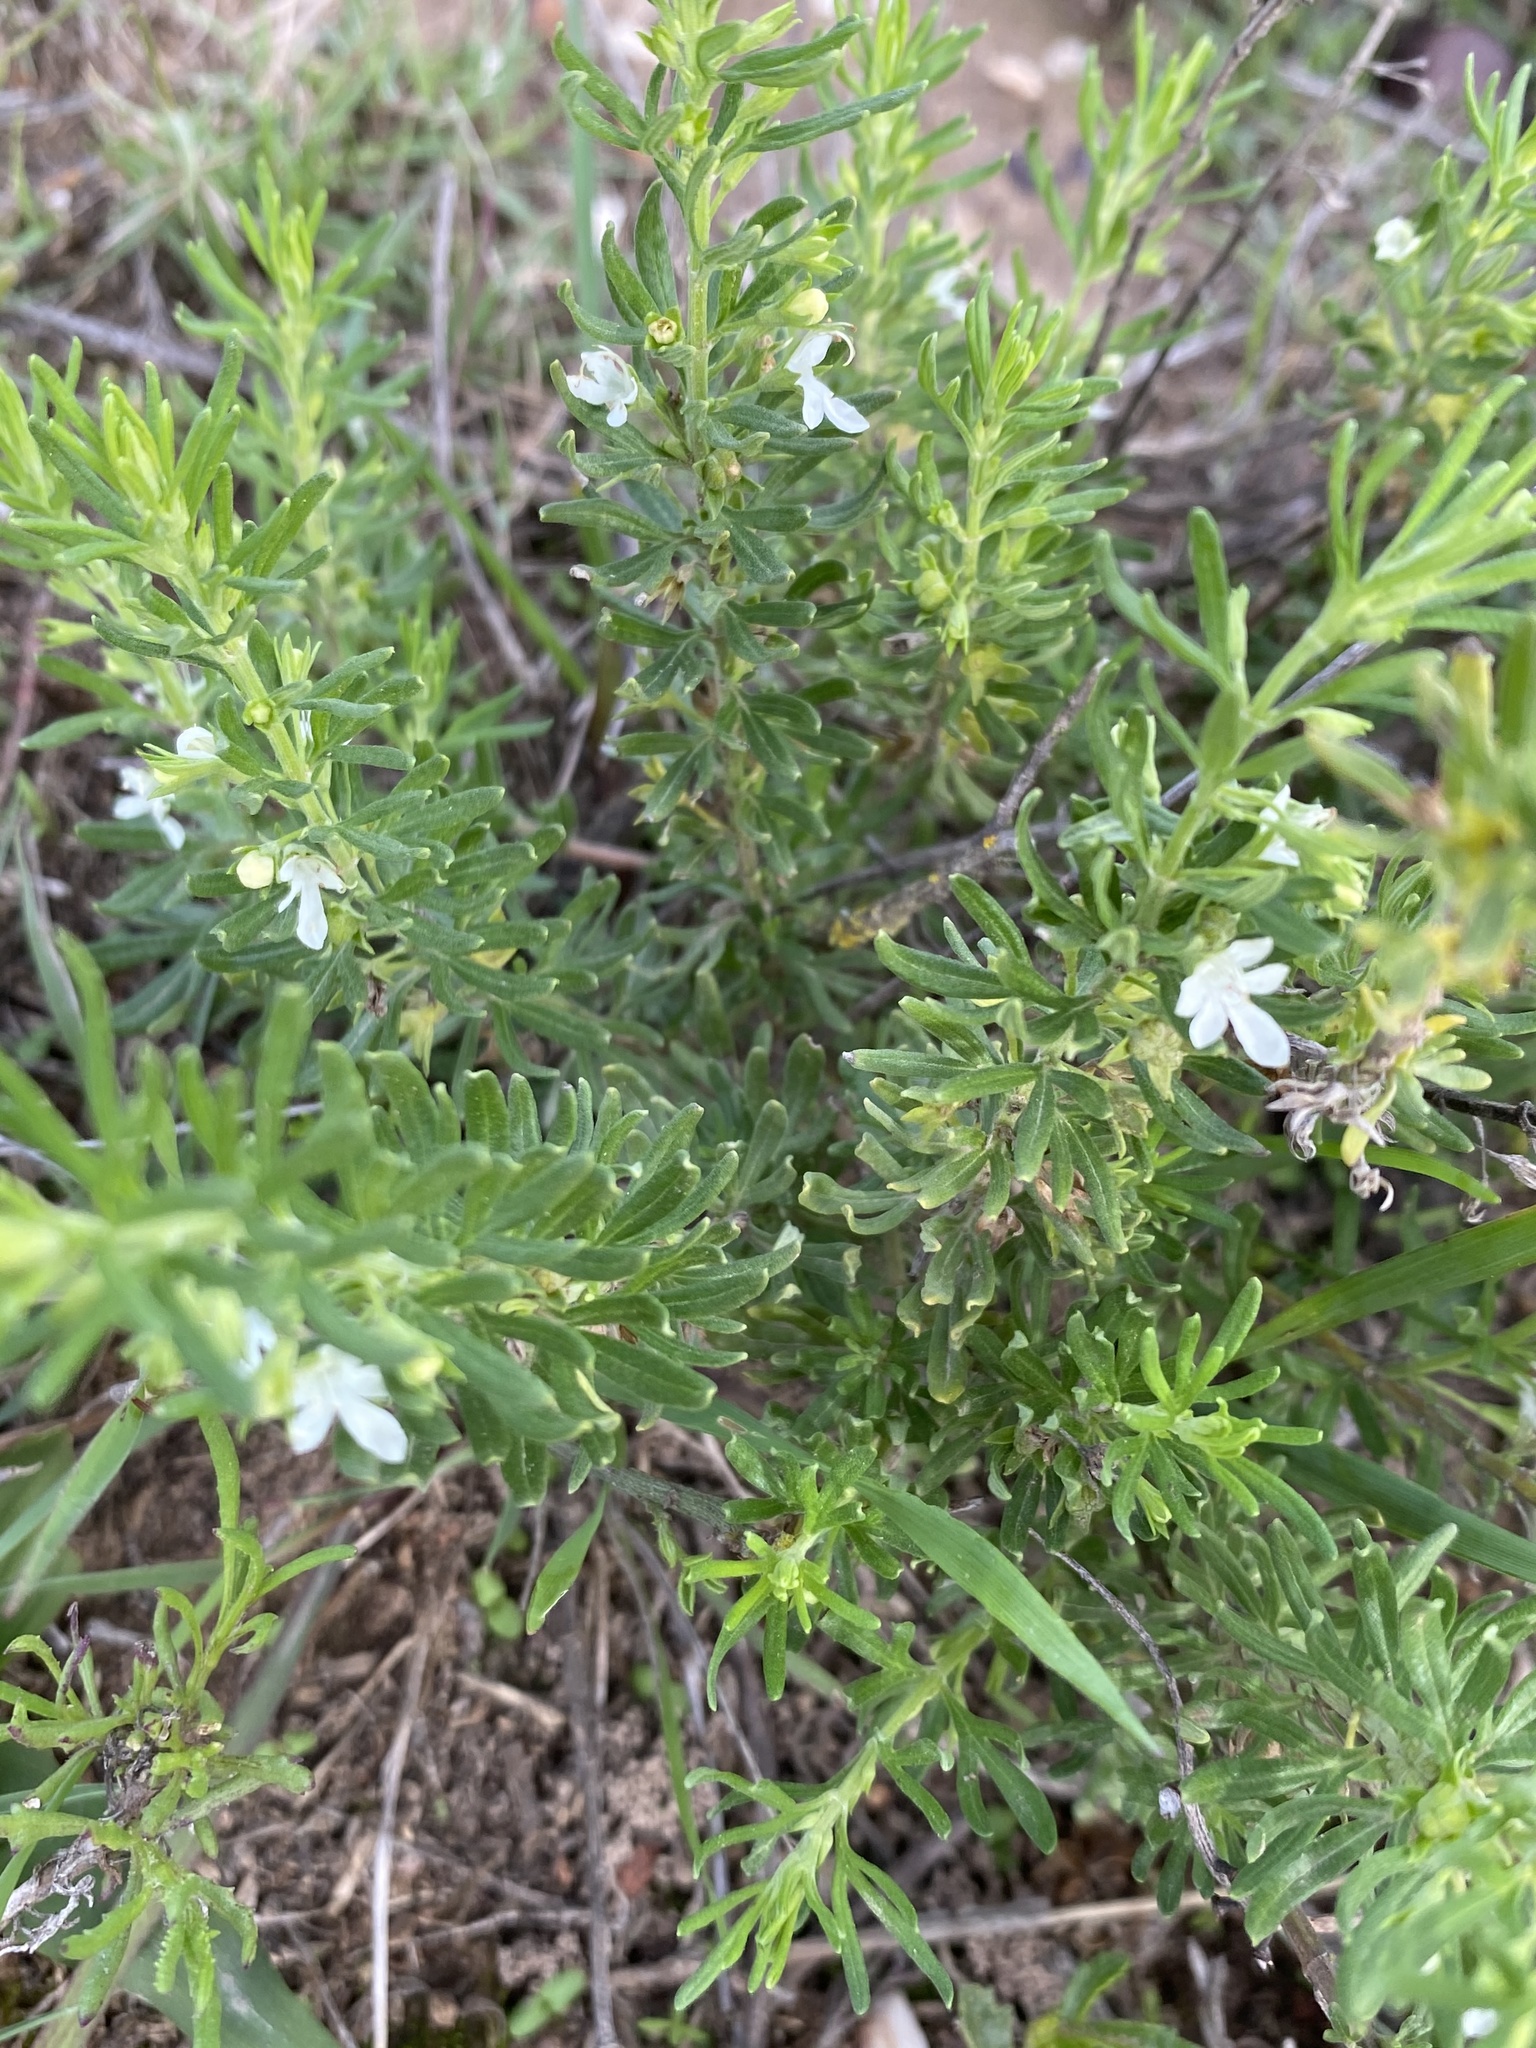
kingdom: Plantae
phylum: Tracheophyta
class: Magnoliopsida
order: Lamiales
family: Lamiaceae
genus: Teucrium
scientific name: Teucrium africanum
